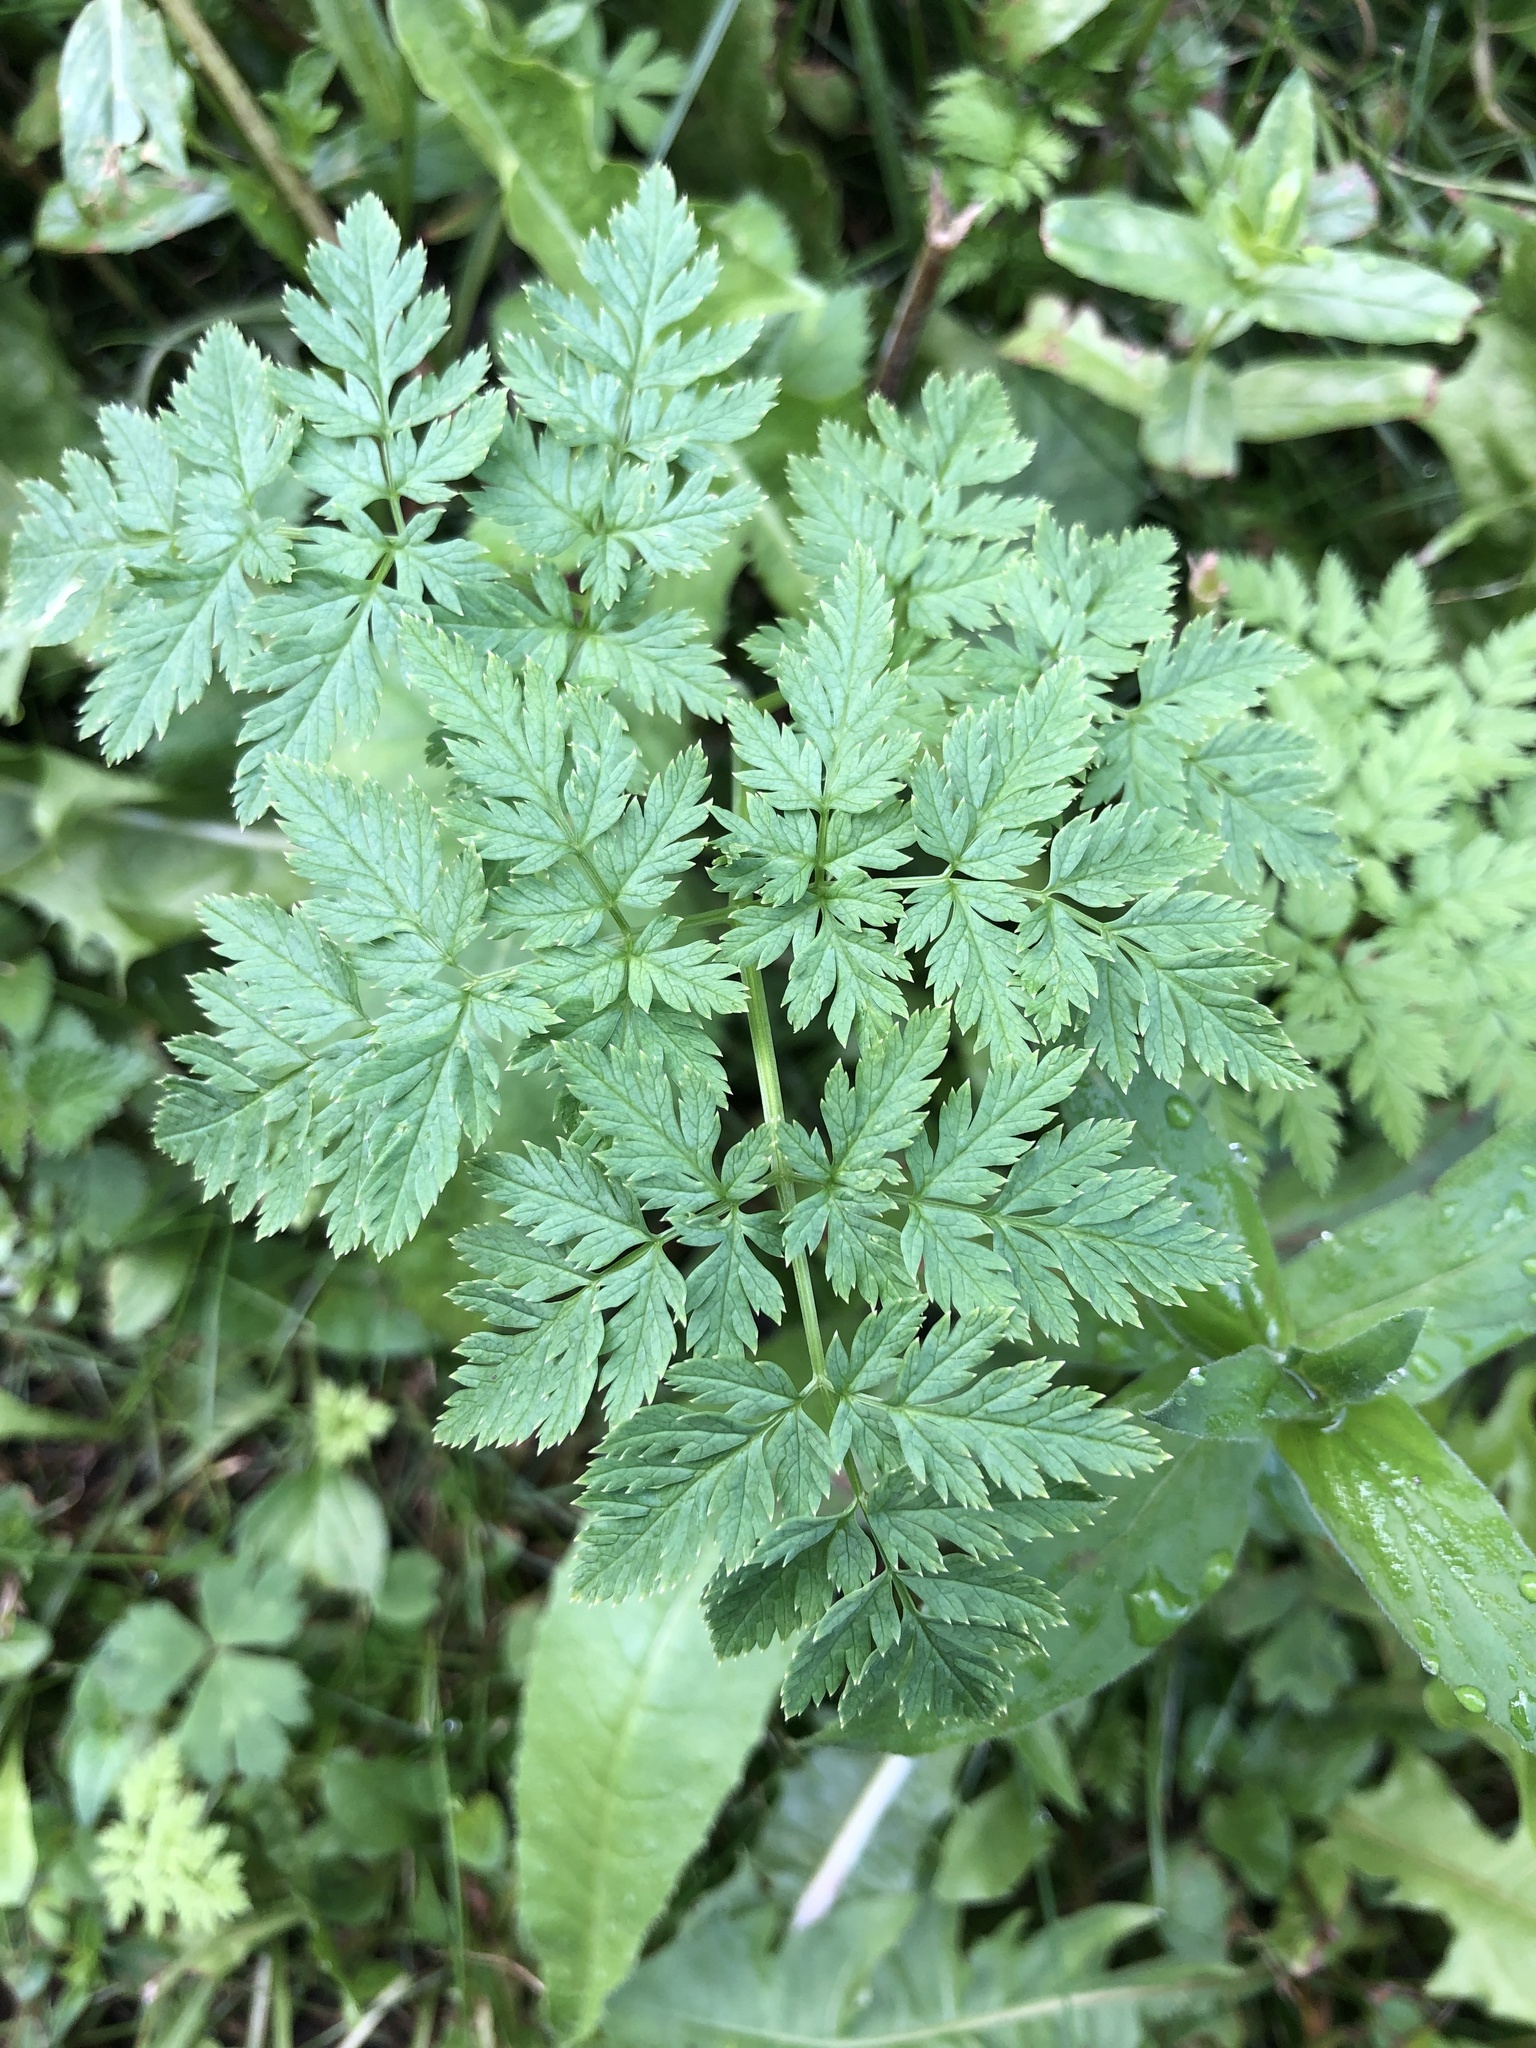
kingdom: Plantae
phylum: Tracheophyta
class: Magnoliopsida
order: Apiales
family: Apiaceae
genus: Conium
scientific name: Conium maculatum
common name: Hemlock
